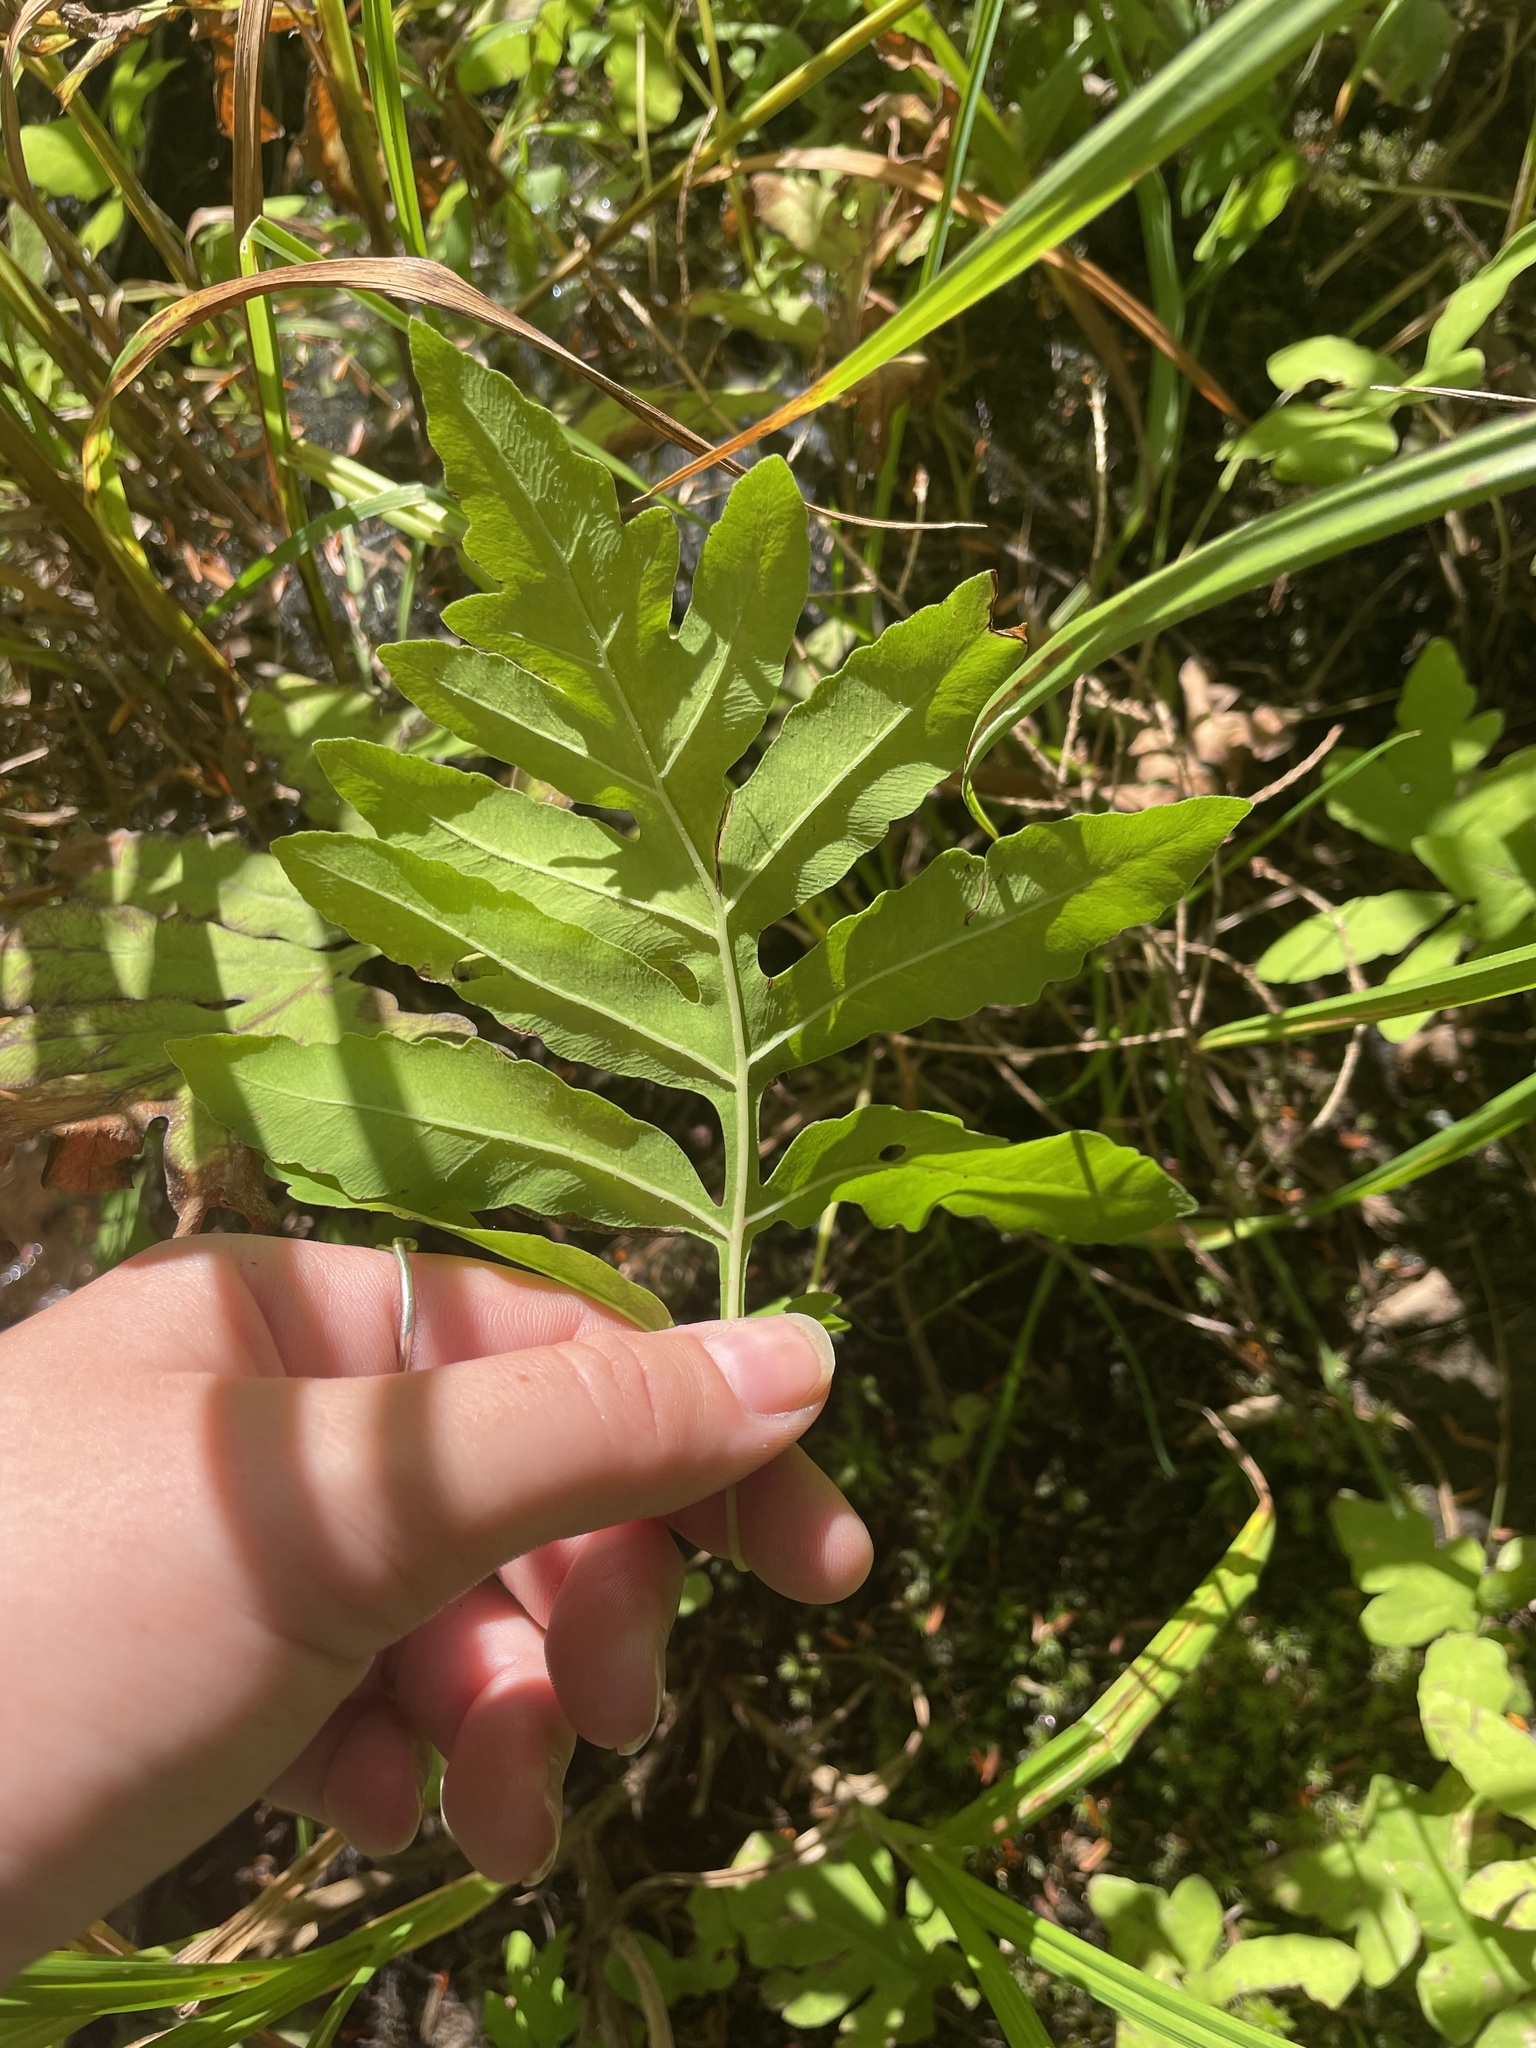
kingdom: Plantae
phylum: Tracheophyta
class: Polypodiopsida
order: Polypodiales
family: Onocleaceae
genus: Onoclea
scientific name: Onoclea sensibilis
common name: Sensitive fern
